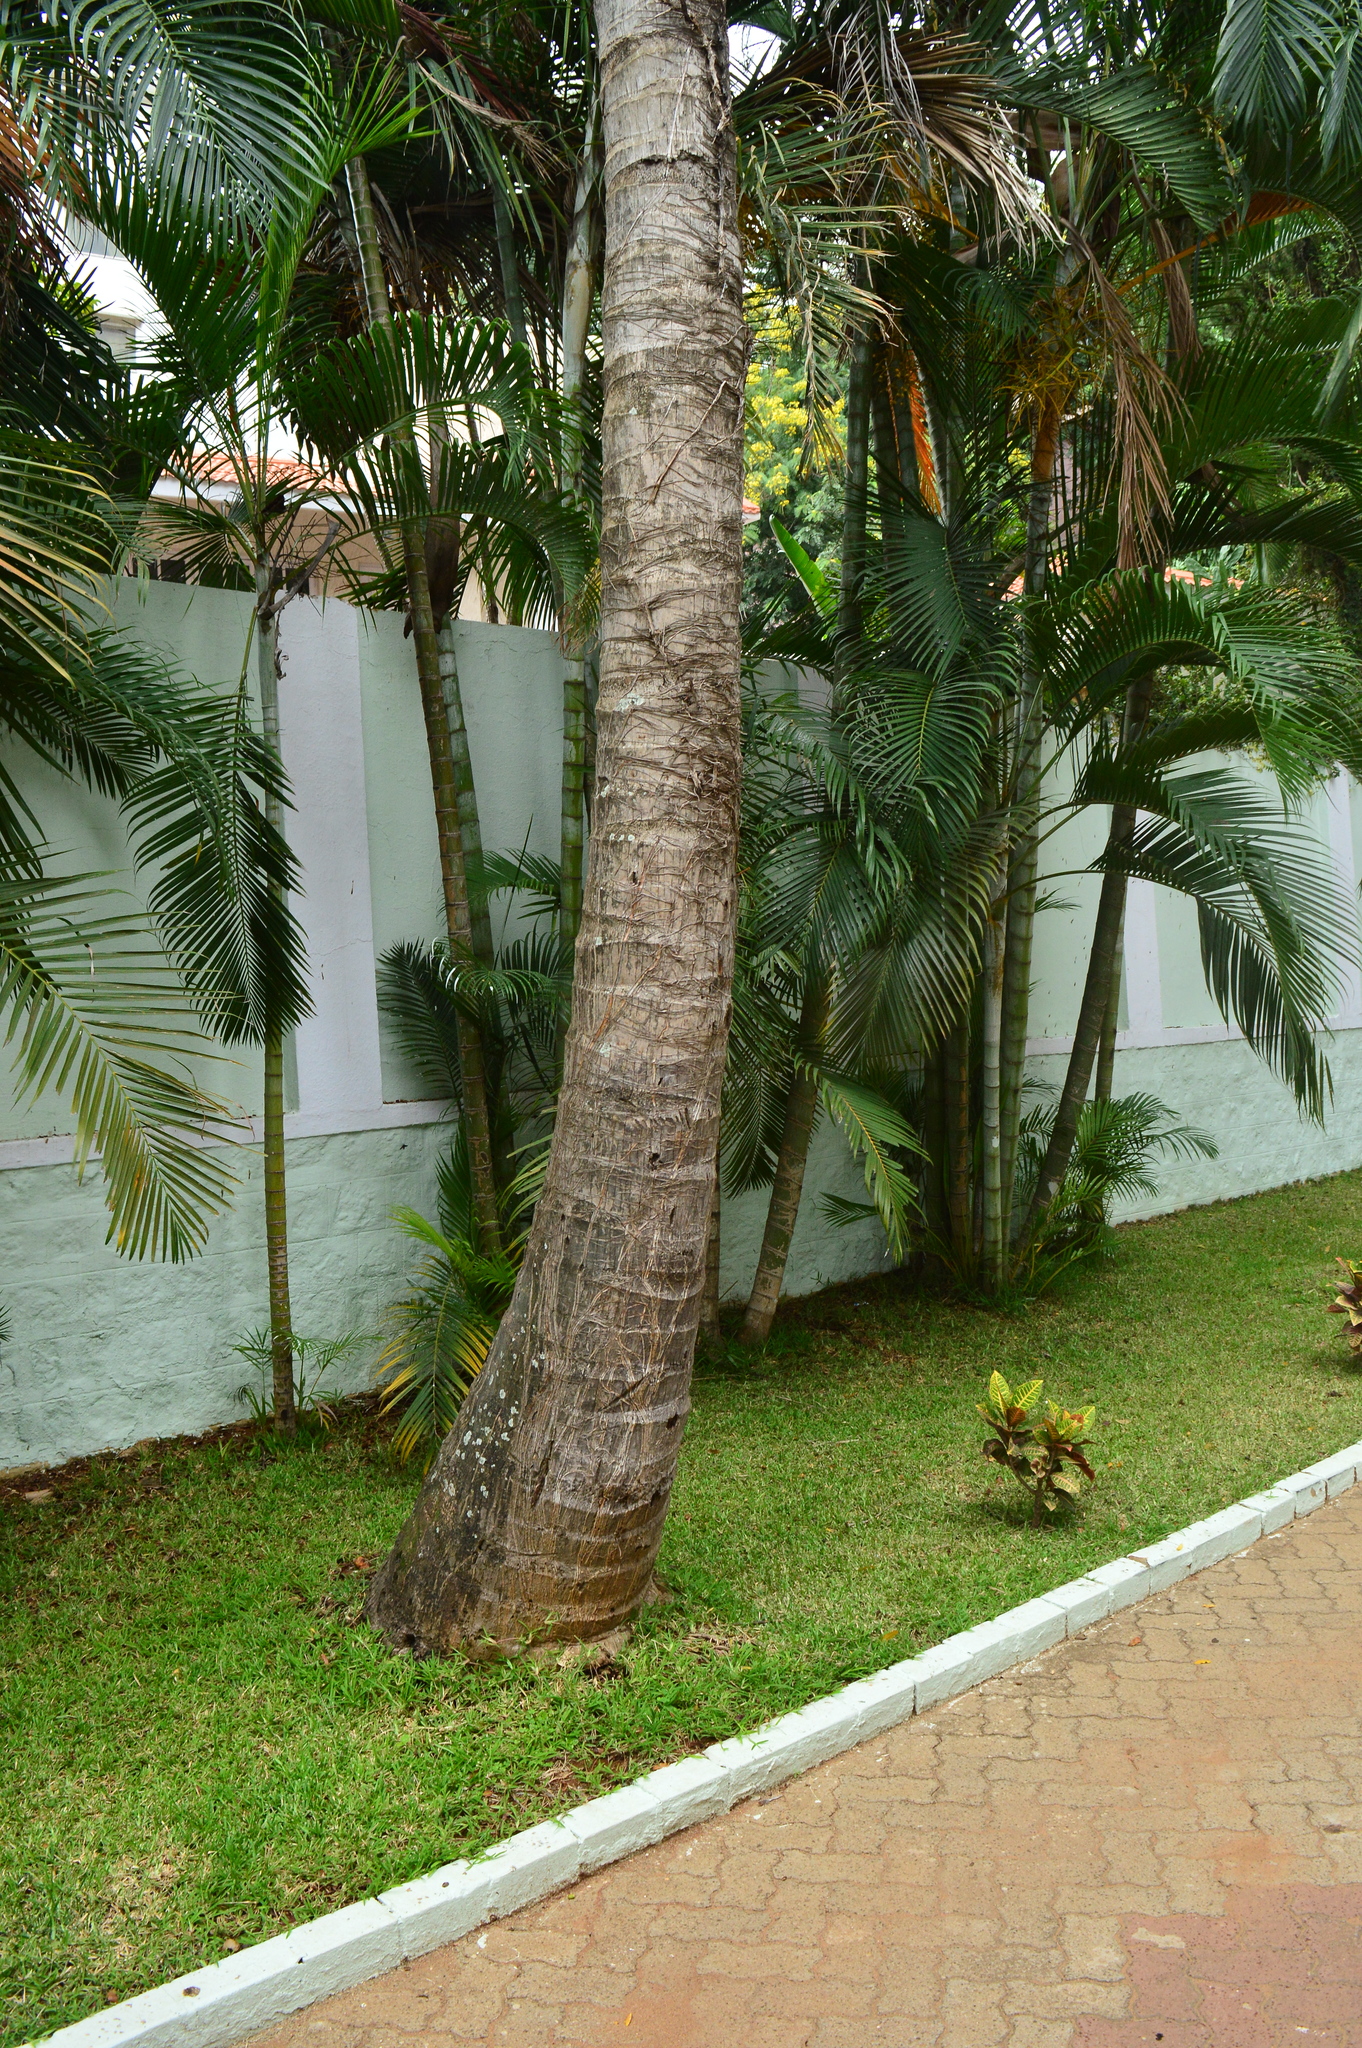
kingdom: Plantae
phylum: Tracheophyta
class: Liliopsida
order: Arecales
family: Arecaceae
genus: Cocos
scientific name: Cocos nucifera
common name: Coconut palm
